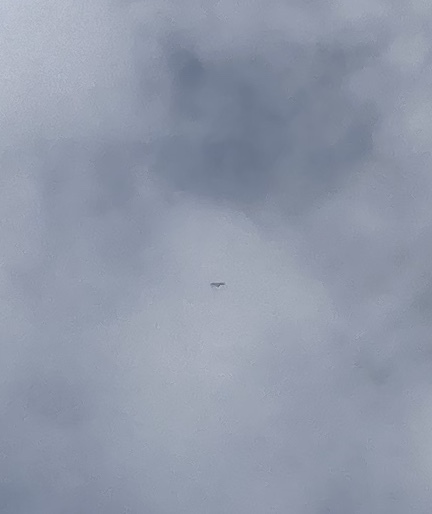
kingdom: Animalia
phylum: Chordata
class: Aves
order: Accipitriformes
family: Accipitridae
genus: Gyps
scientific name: Gyps fulvus
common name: Griffon vulture
